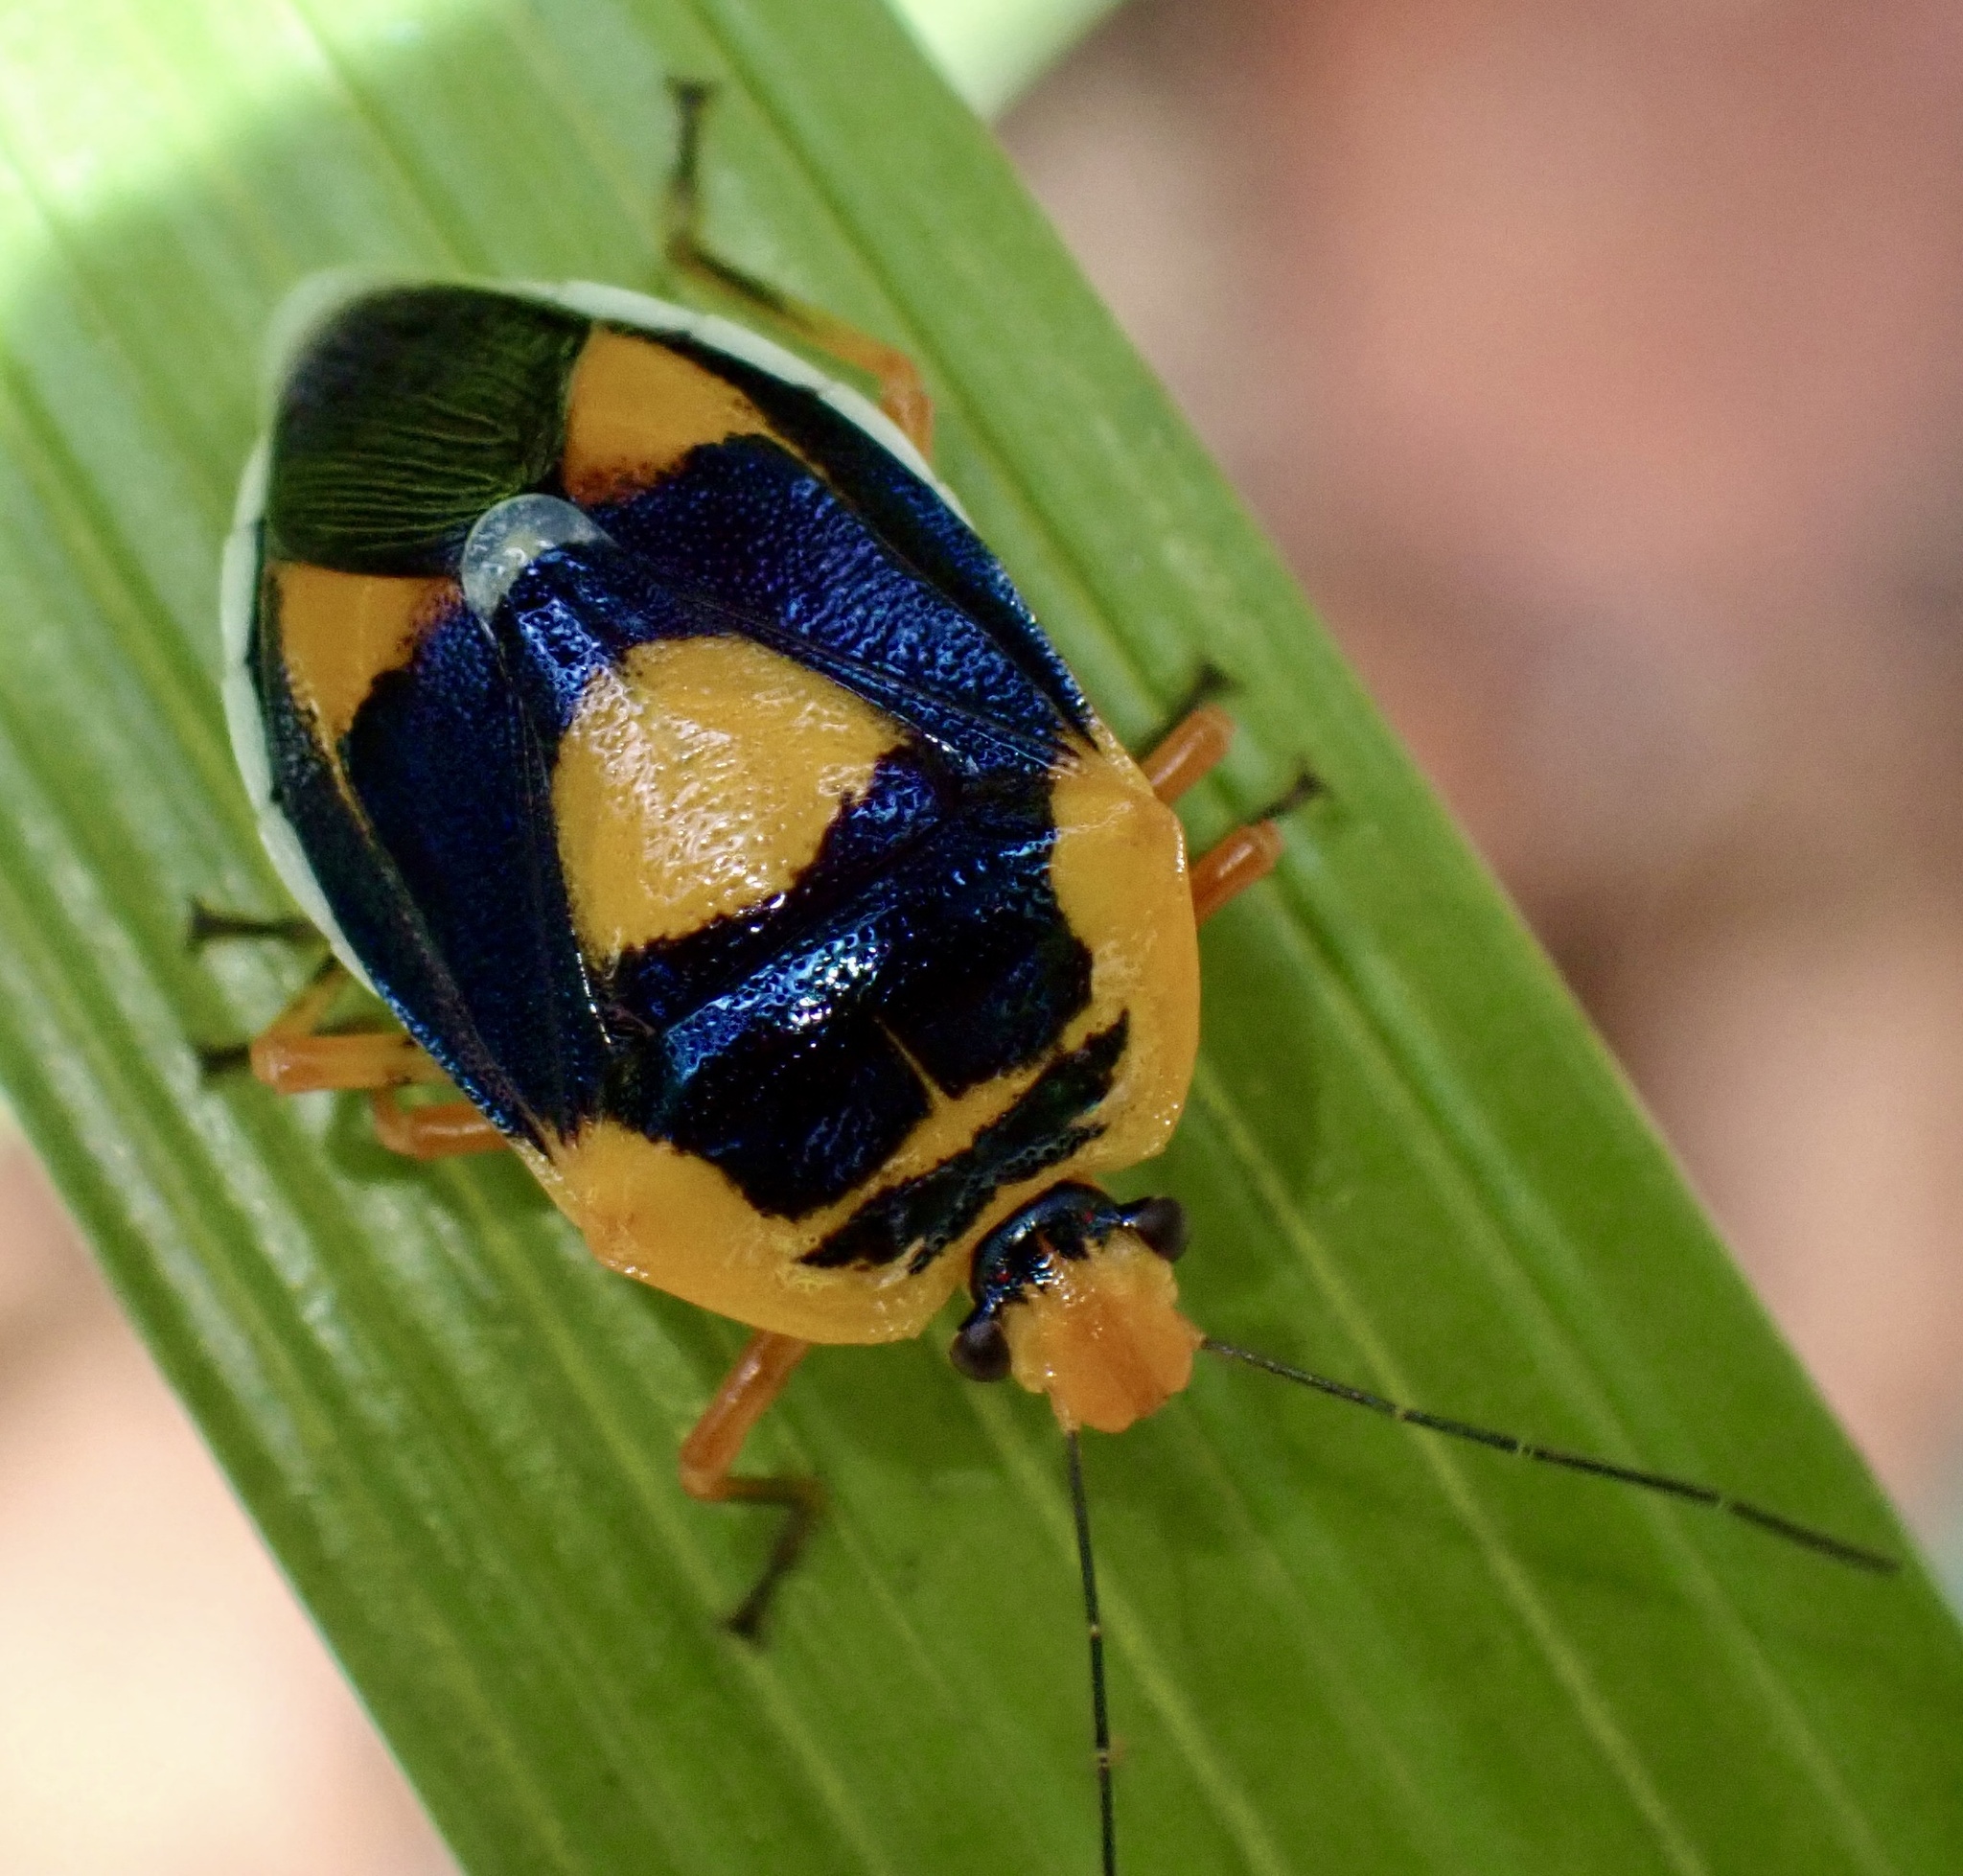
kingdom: Animalia
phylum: Arthropoda
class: Insecta
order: Hemiptera
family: Pentatomidae
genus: Amyotea
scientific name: Amyotea
